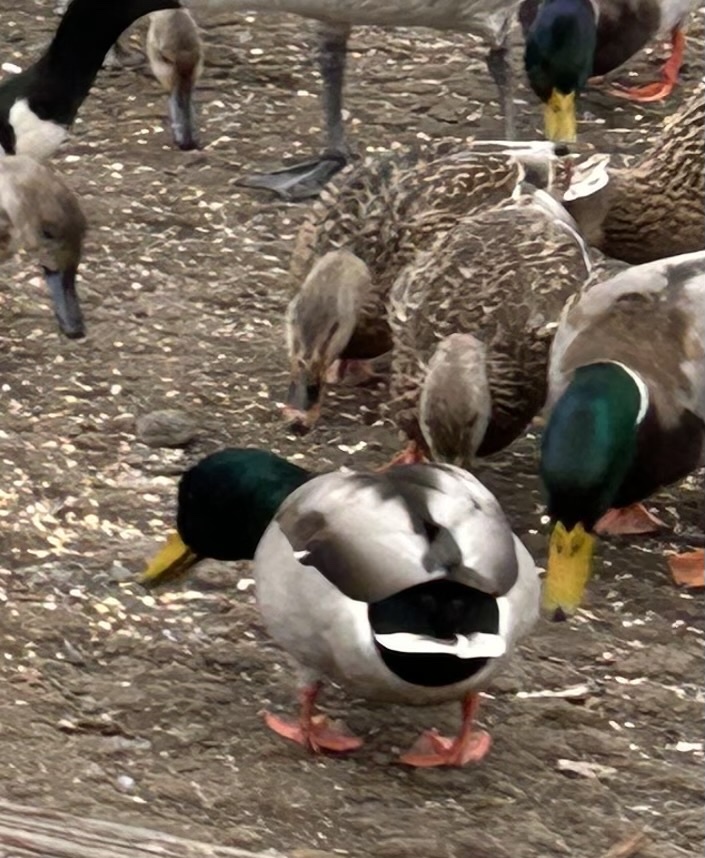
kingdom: Animalia
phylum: Chordata
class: Aves
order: Anseriformes
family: Anatidae
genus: Anas
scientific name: Anas platyrhynchos
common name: Mallard
